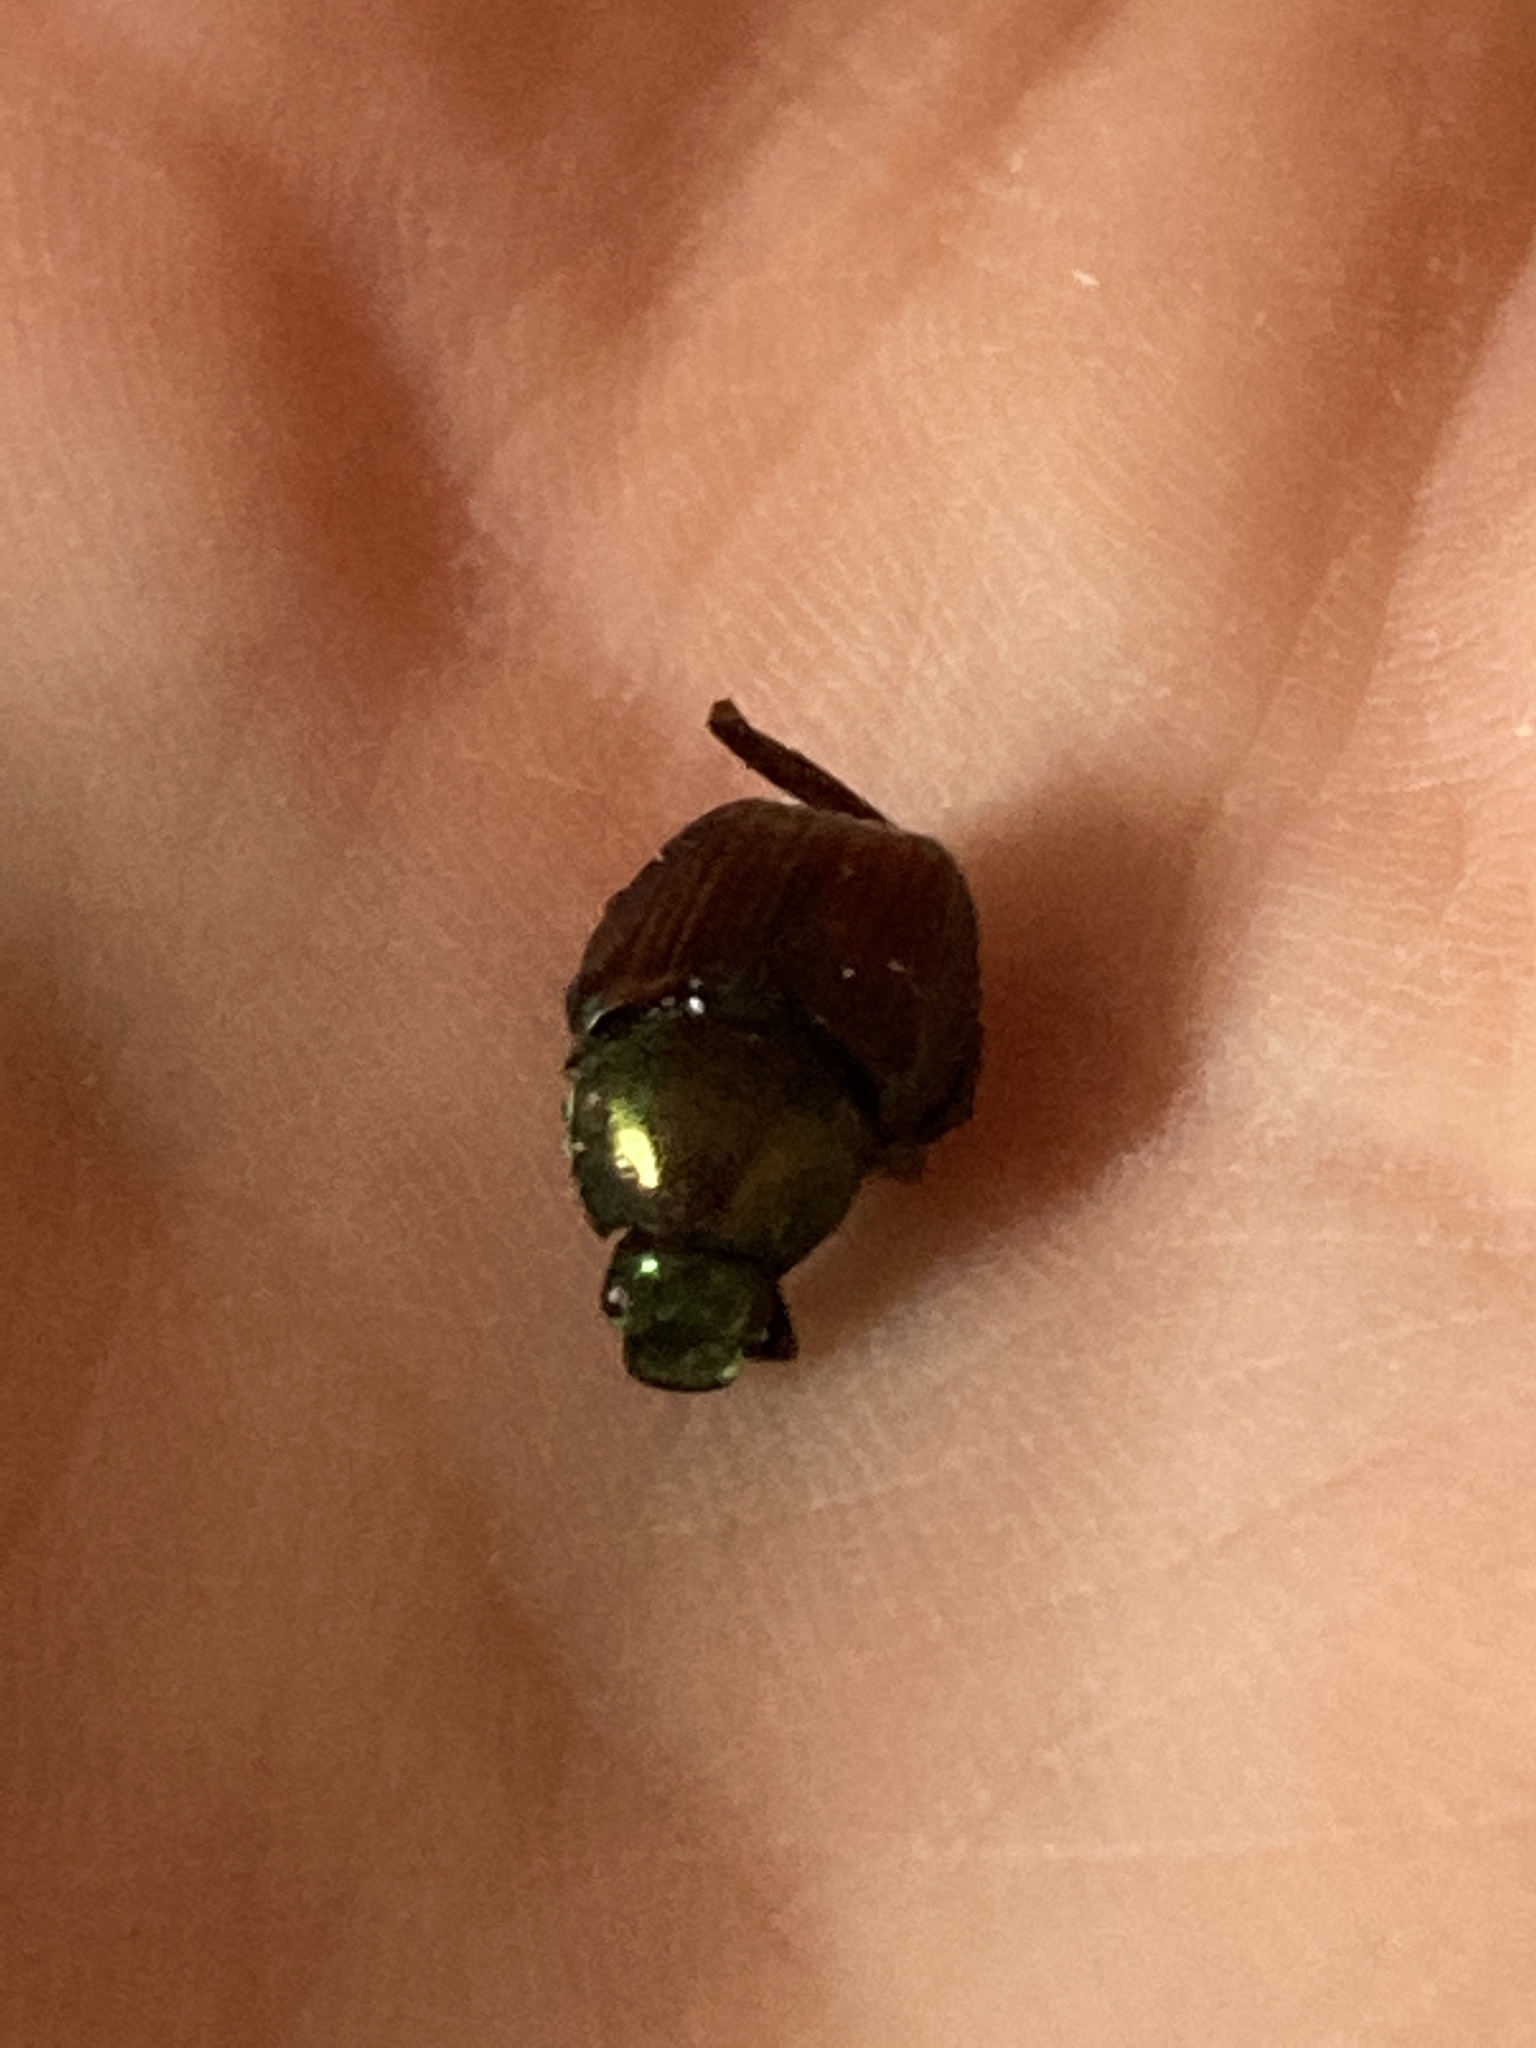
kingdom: Animalia
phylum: Arthropoda
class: Insecta
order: Coleoptera
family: Scarabaeidae
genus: Popillia
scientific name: Popillia japonica
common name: Japanese beetle
